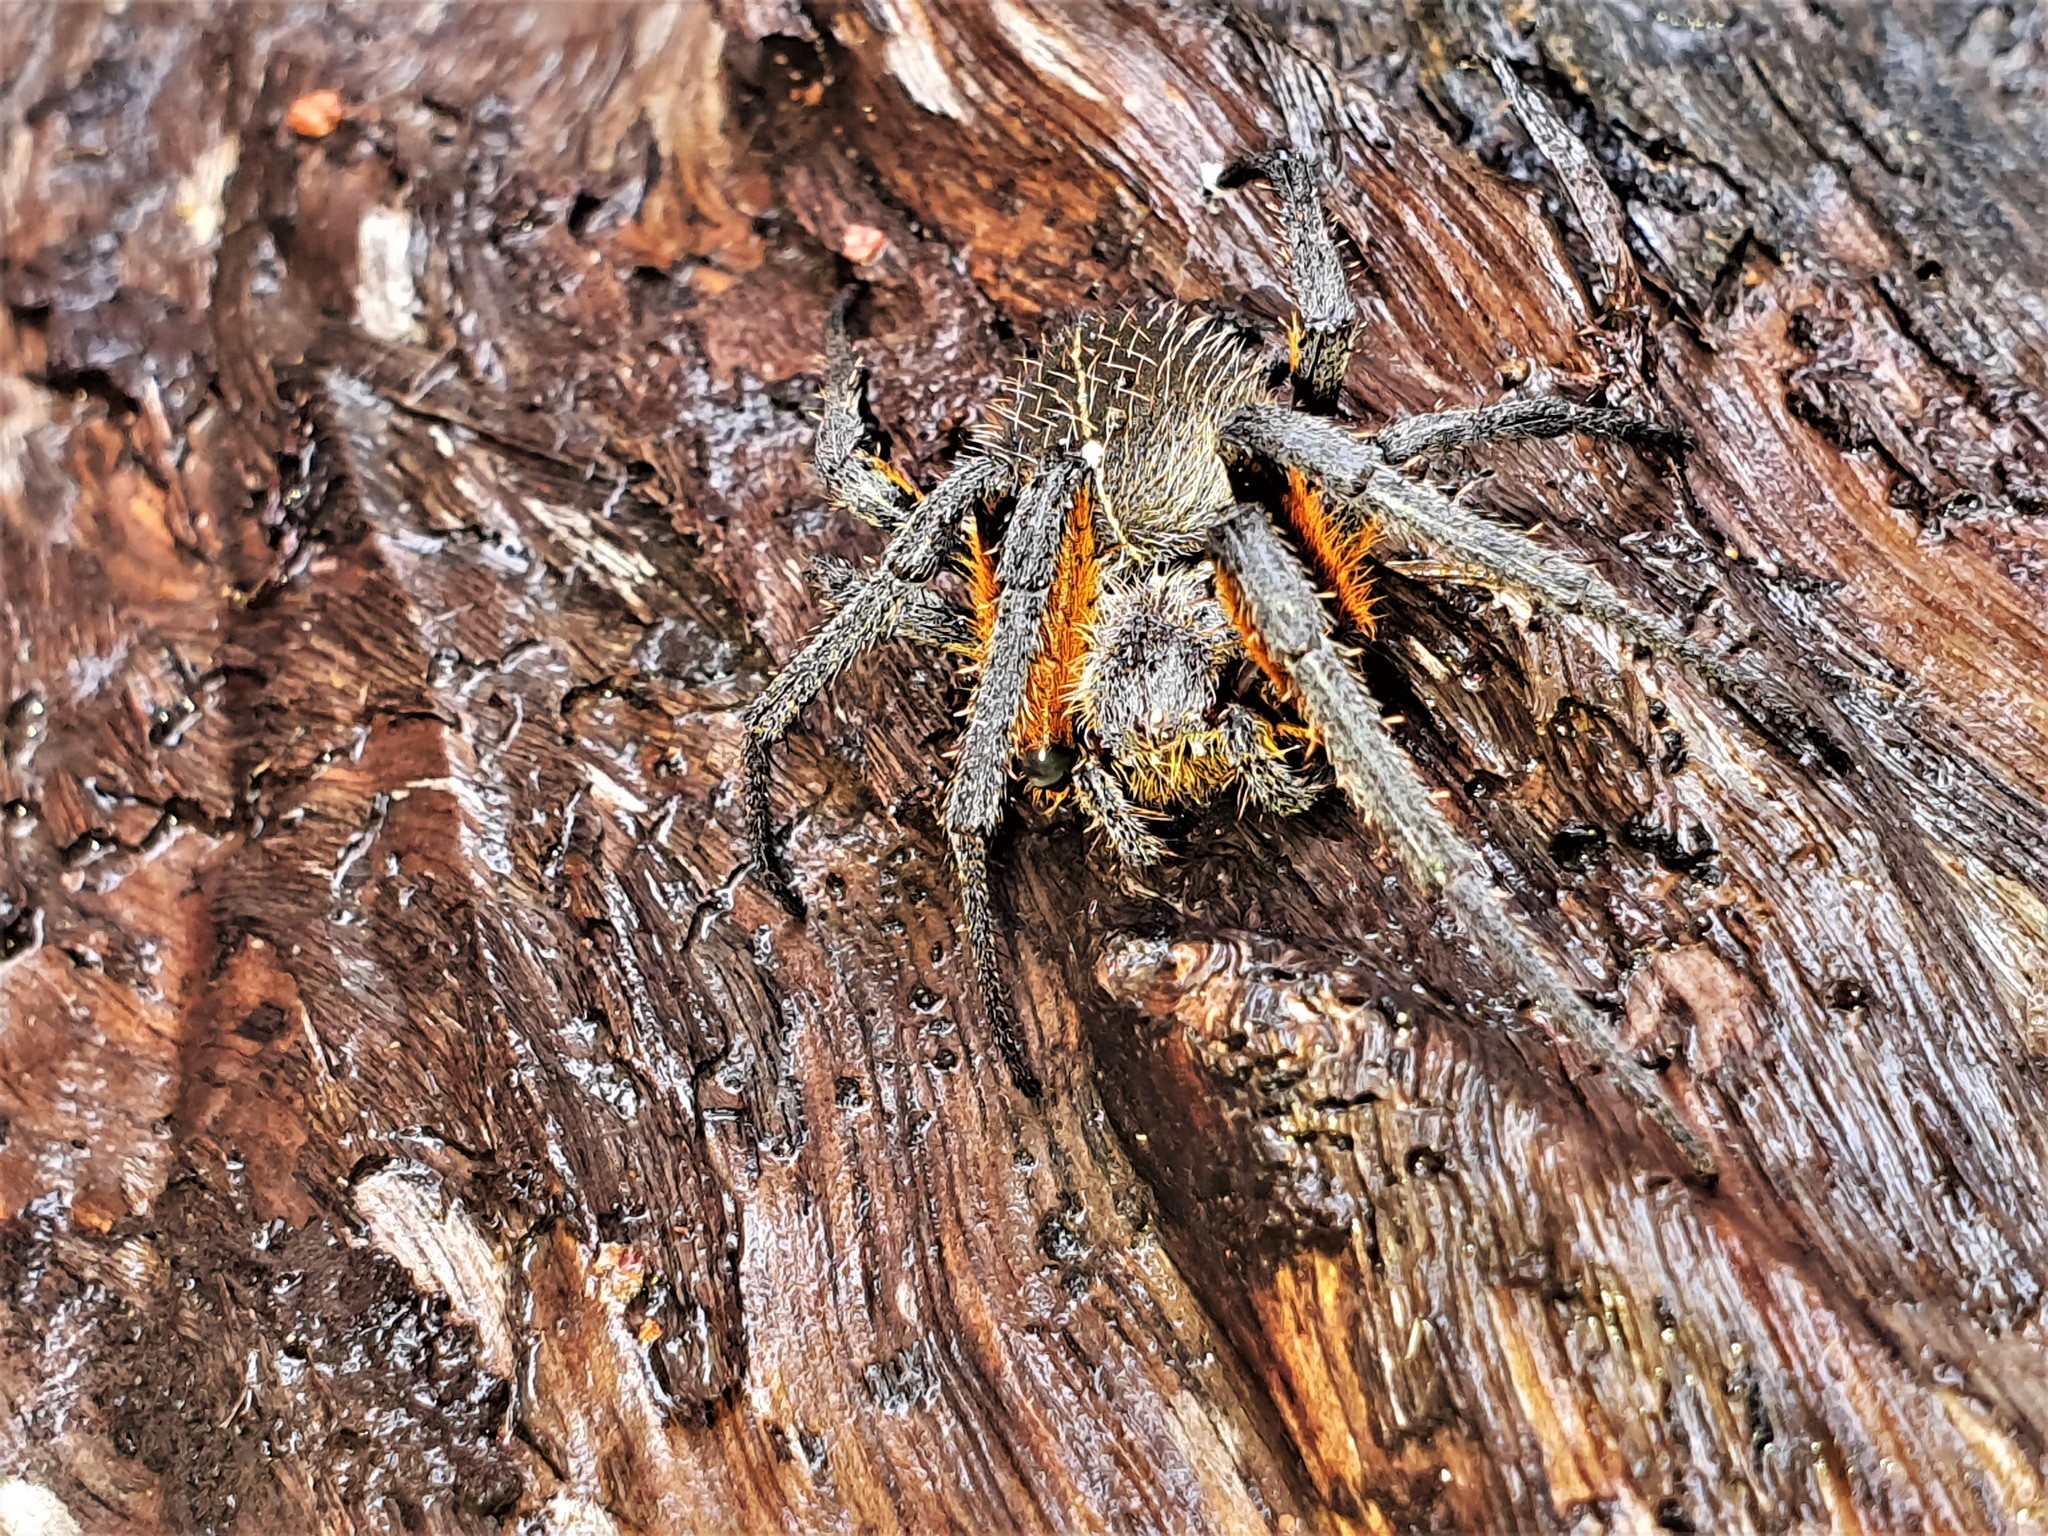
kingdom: Animalia
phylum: Arthropoda
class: Arachnida
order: Araneae
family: Araneidae
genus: Eriophora
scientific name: Eriophora fuliginea
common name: Orb weavers
